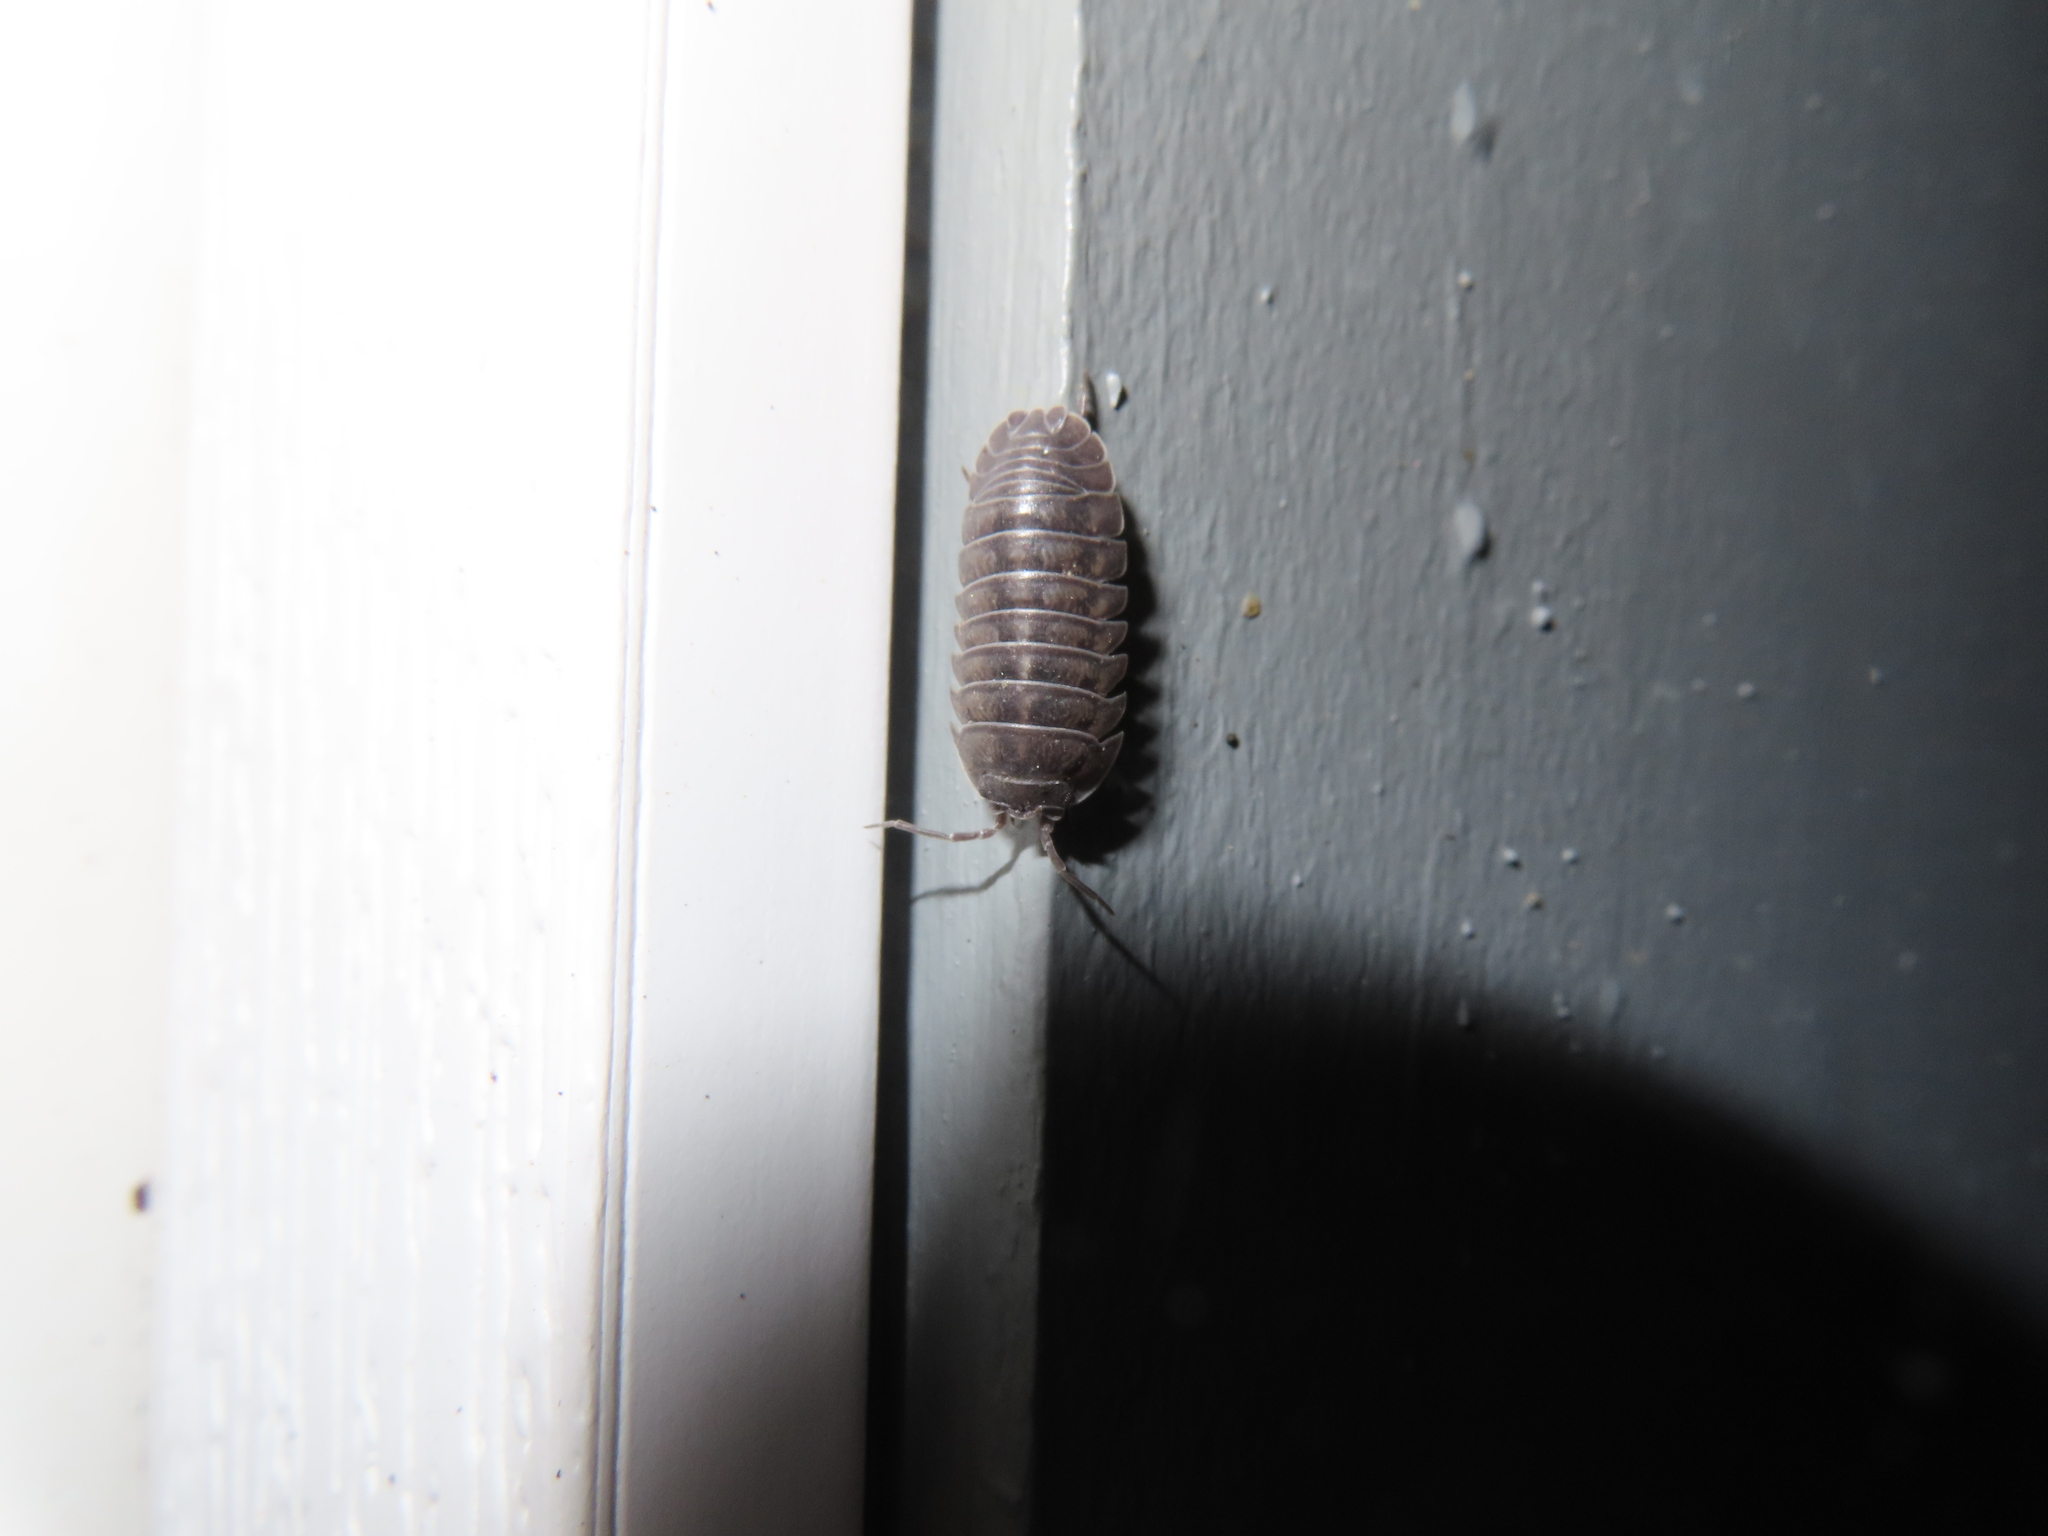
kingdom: Animalia
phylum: Arthropoda
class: Malacostraca
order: Isopoda
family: Armadillidiidae
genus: Armadillidium
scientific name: Armadillidium nasatum
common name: Isopod
